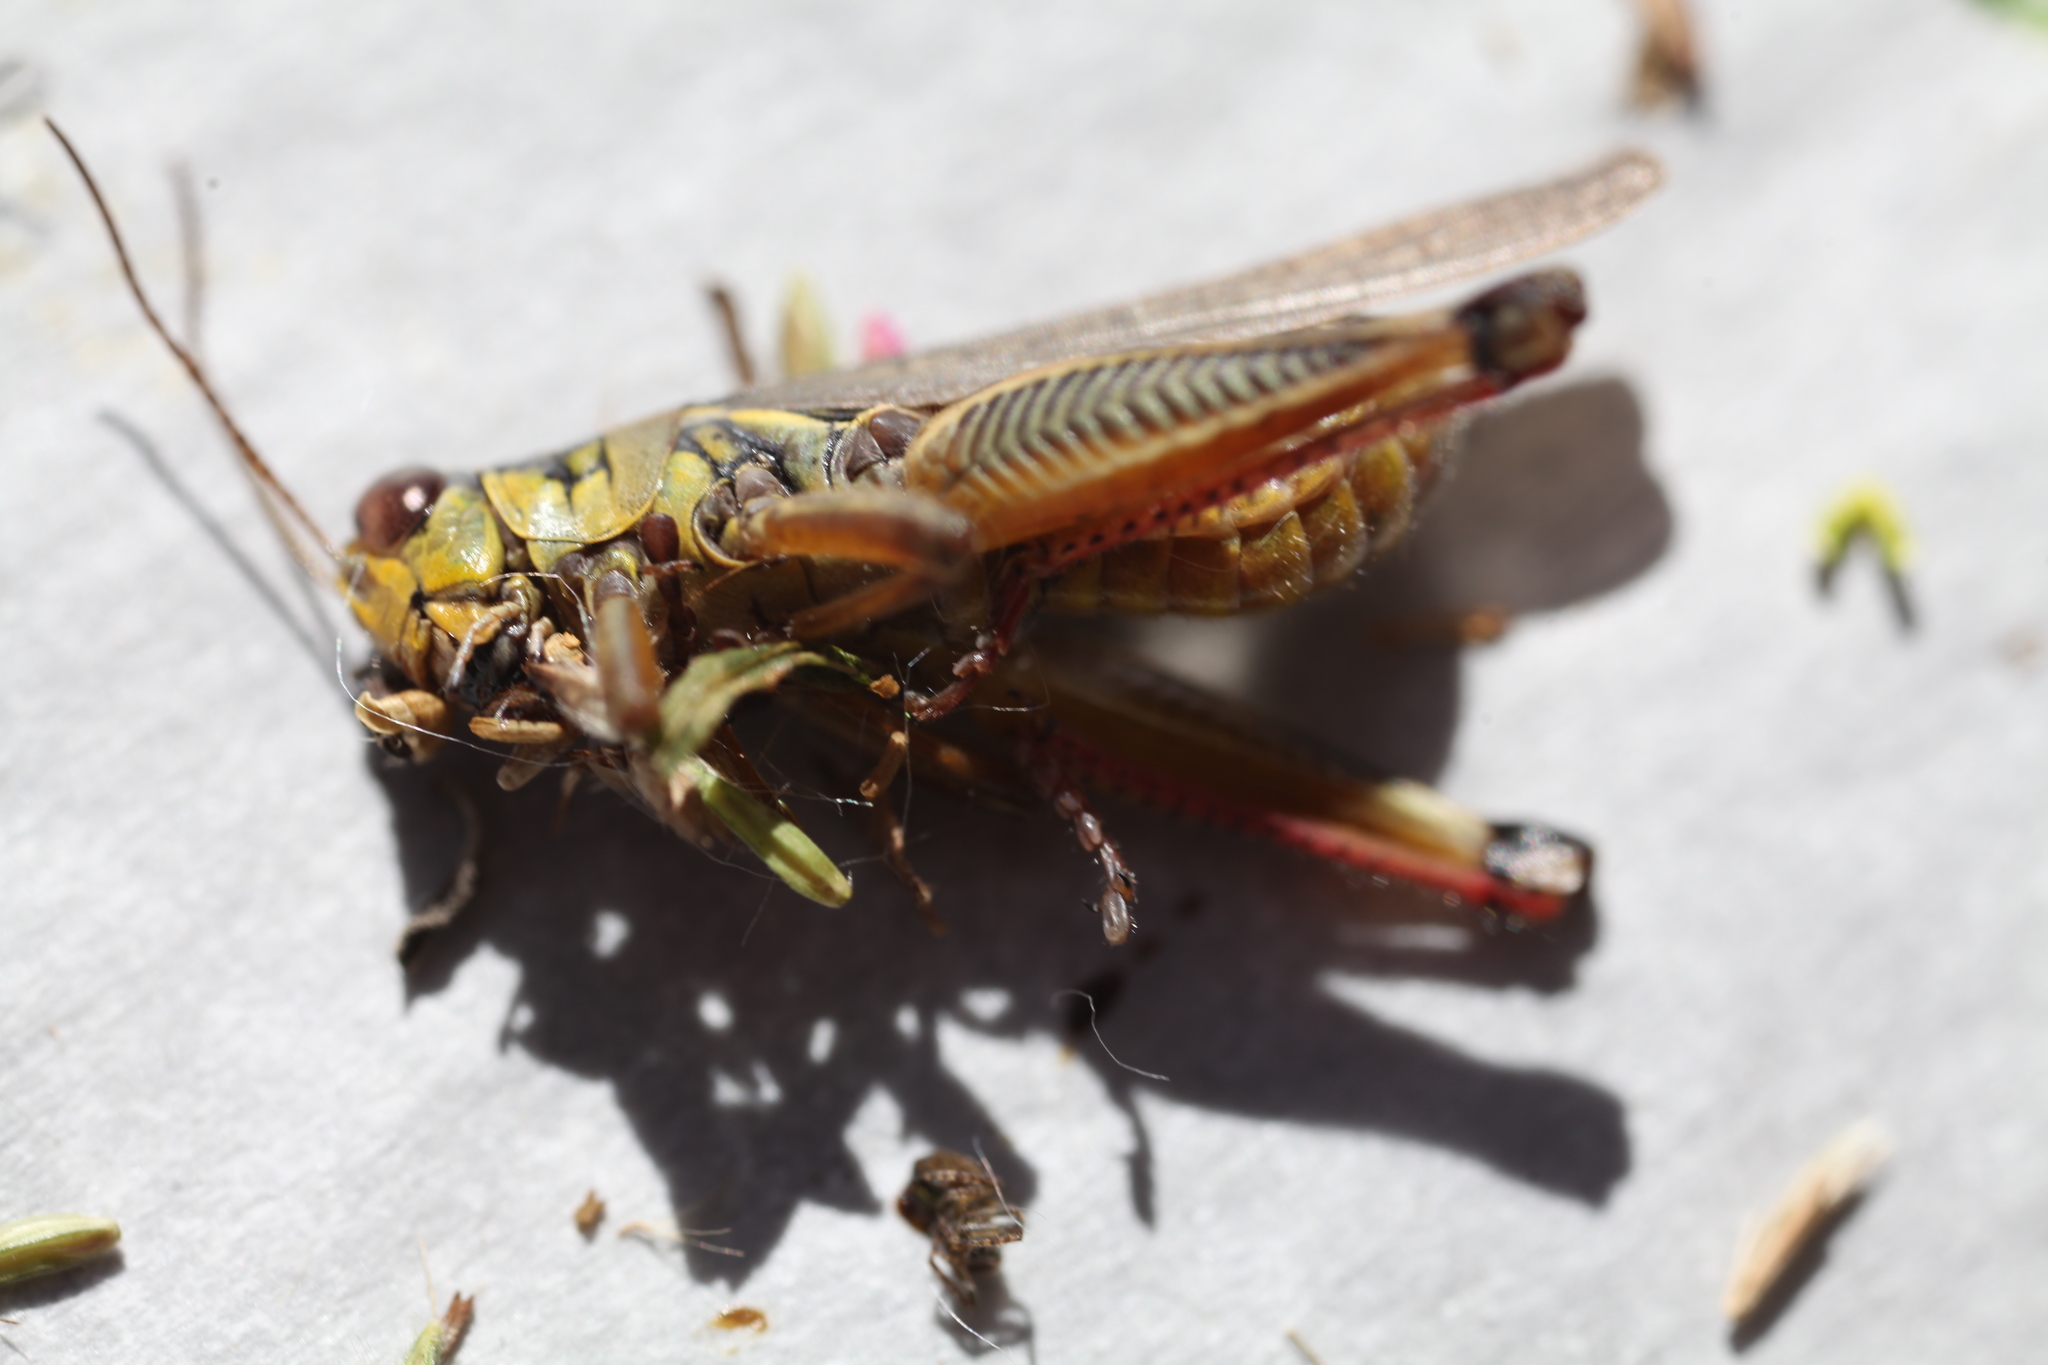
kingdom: Animalia
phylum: Arthropoda
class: Insecta
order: Orthoptera
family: Acrididae
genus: Melanoplus
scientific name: Melanoplus femurrubrum
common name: Red-legged grasshopper
